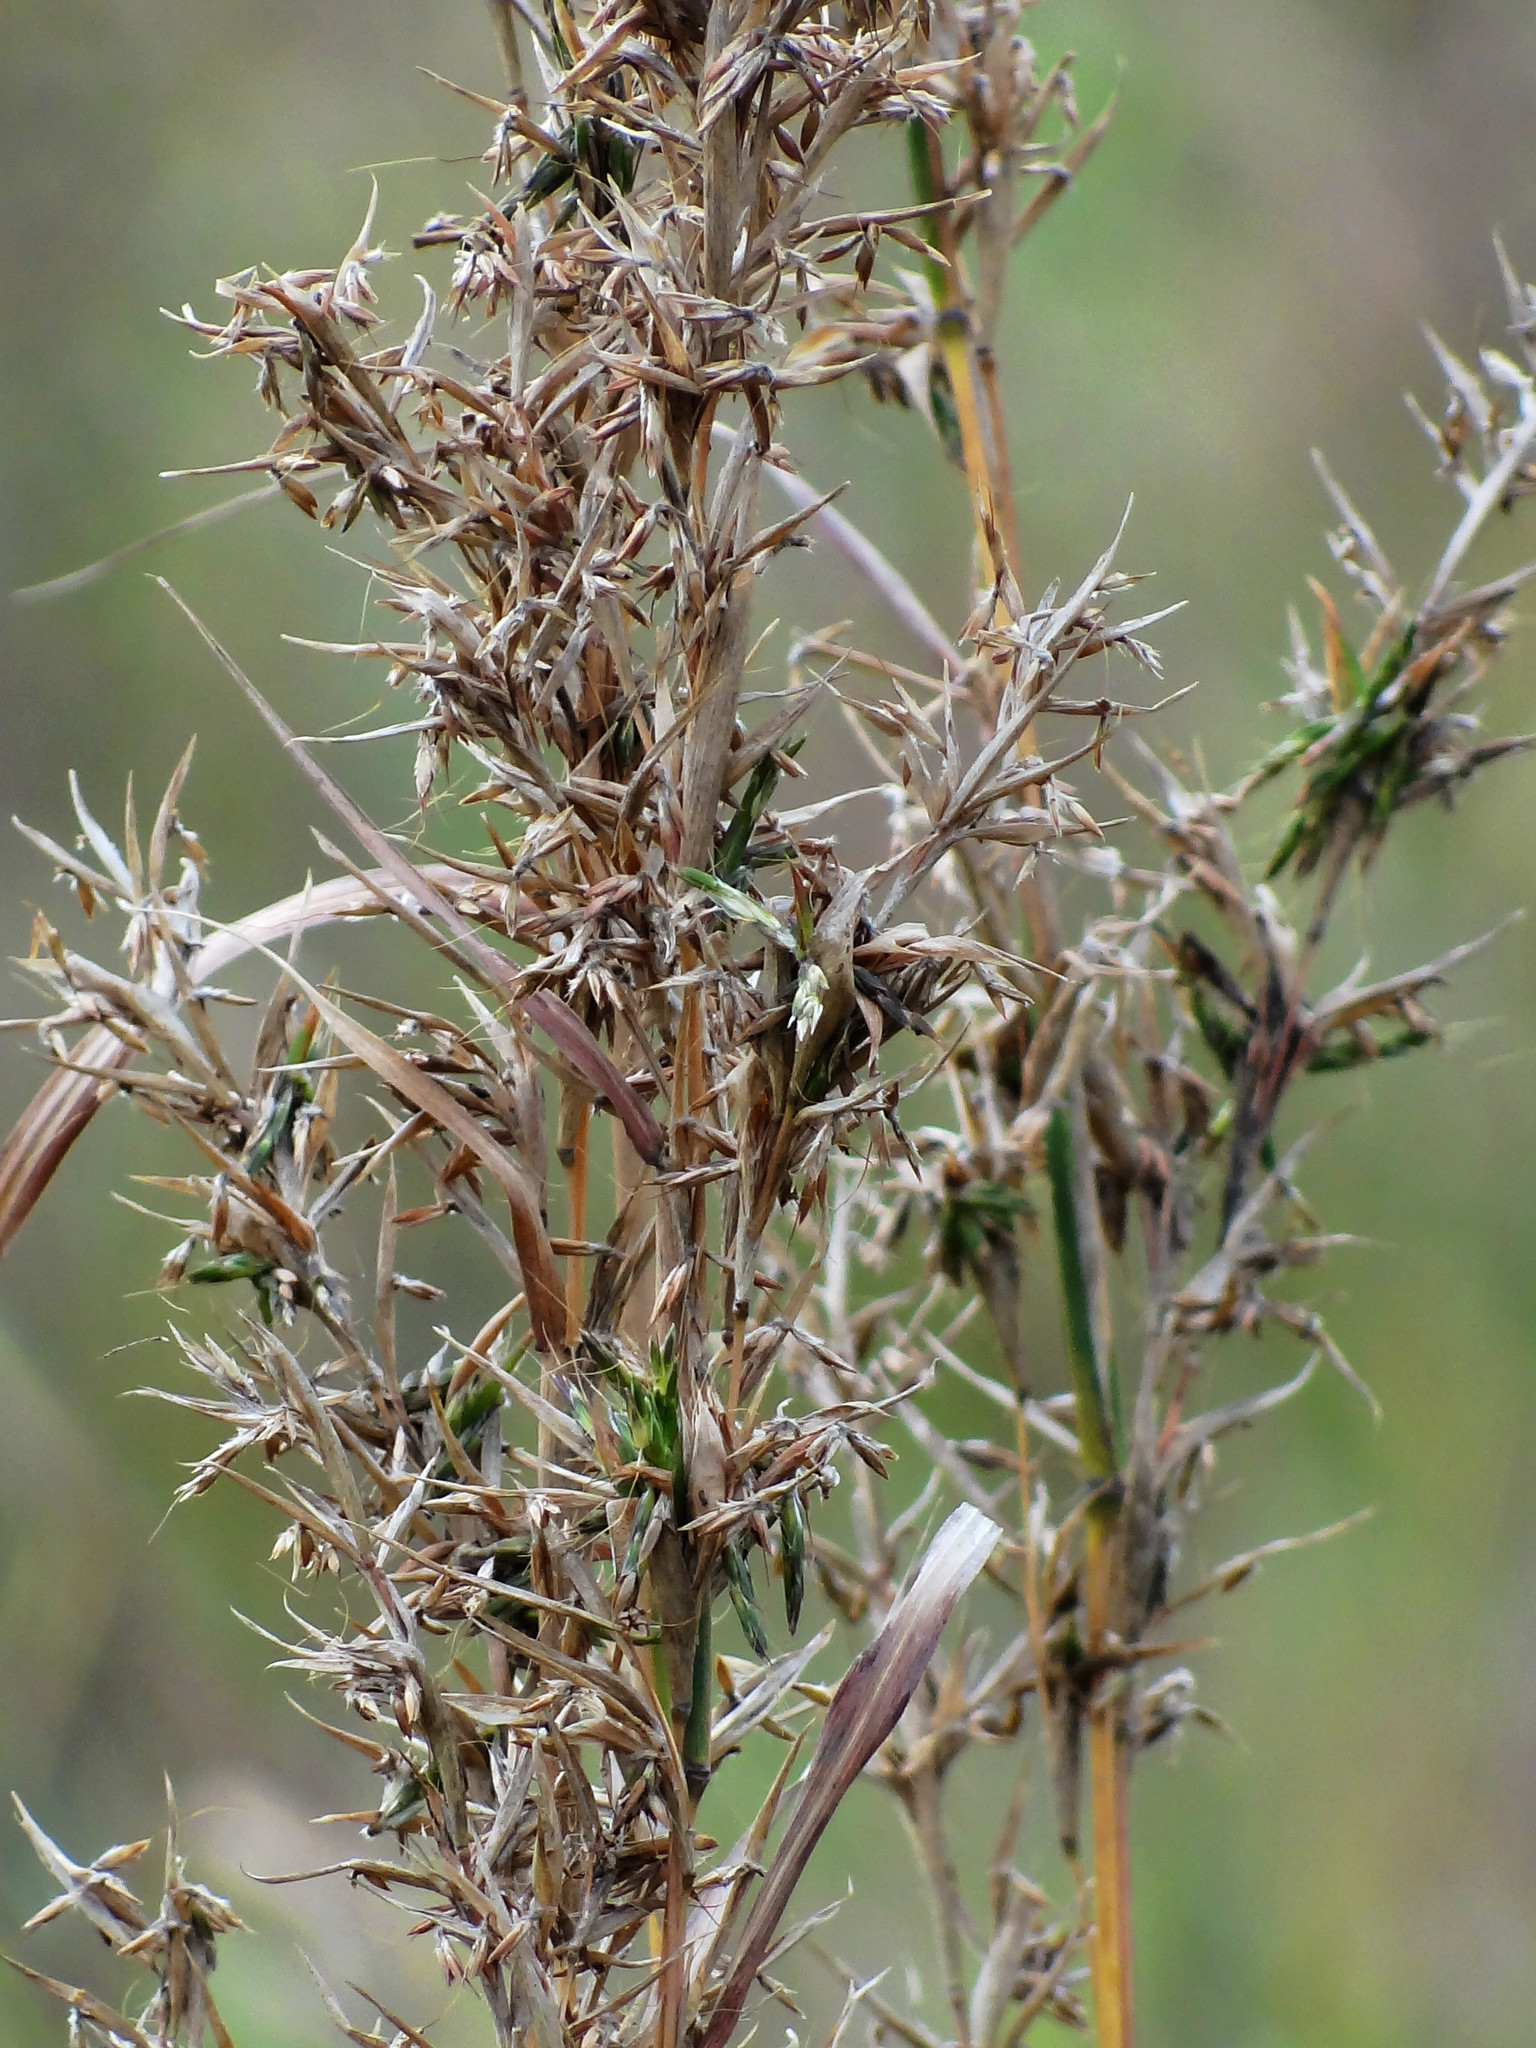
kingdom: Plantae
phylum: Tracheophyta
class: Liliopsida
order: Poales
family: Poaceae
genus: Cymbopogon
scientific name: Cymbopogon tortilis
